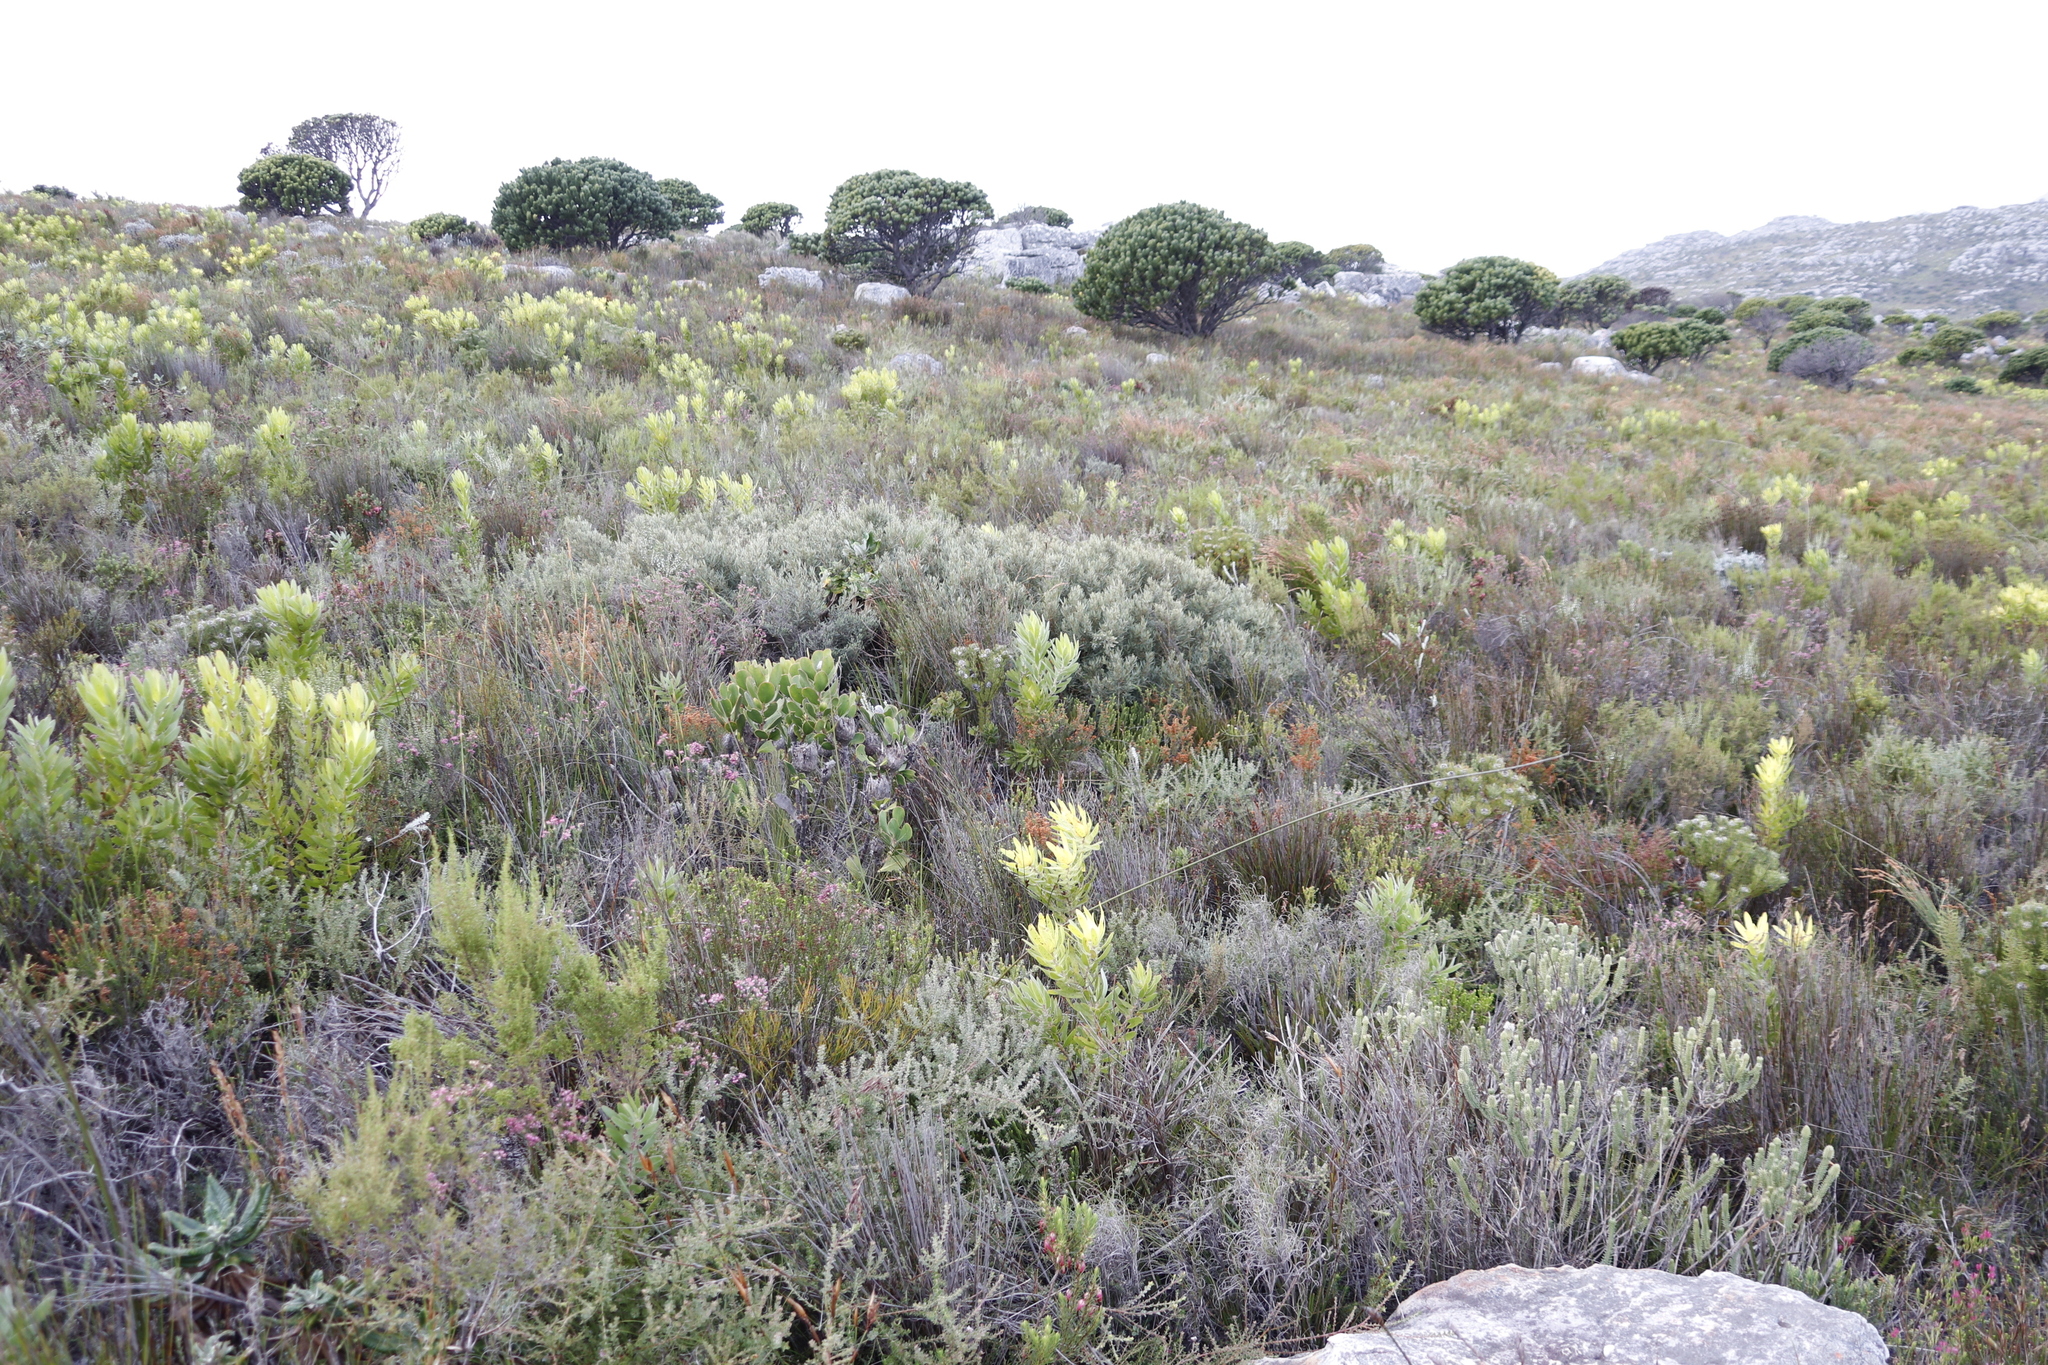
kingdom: Plantae
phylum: Tracheophyta
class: Magnoliopsida
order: Cornales
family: Grubbiaceae
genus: Grubbia
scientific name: Grubbia tomentosa
